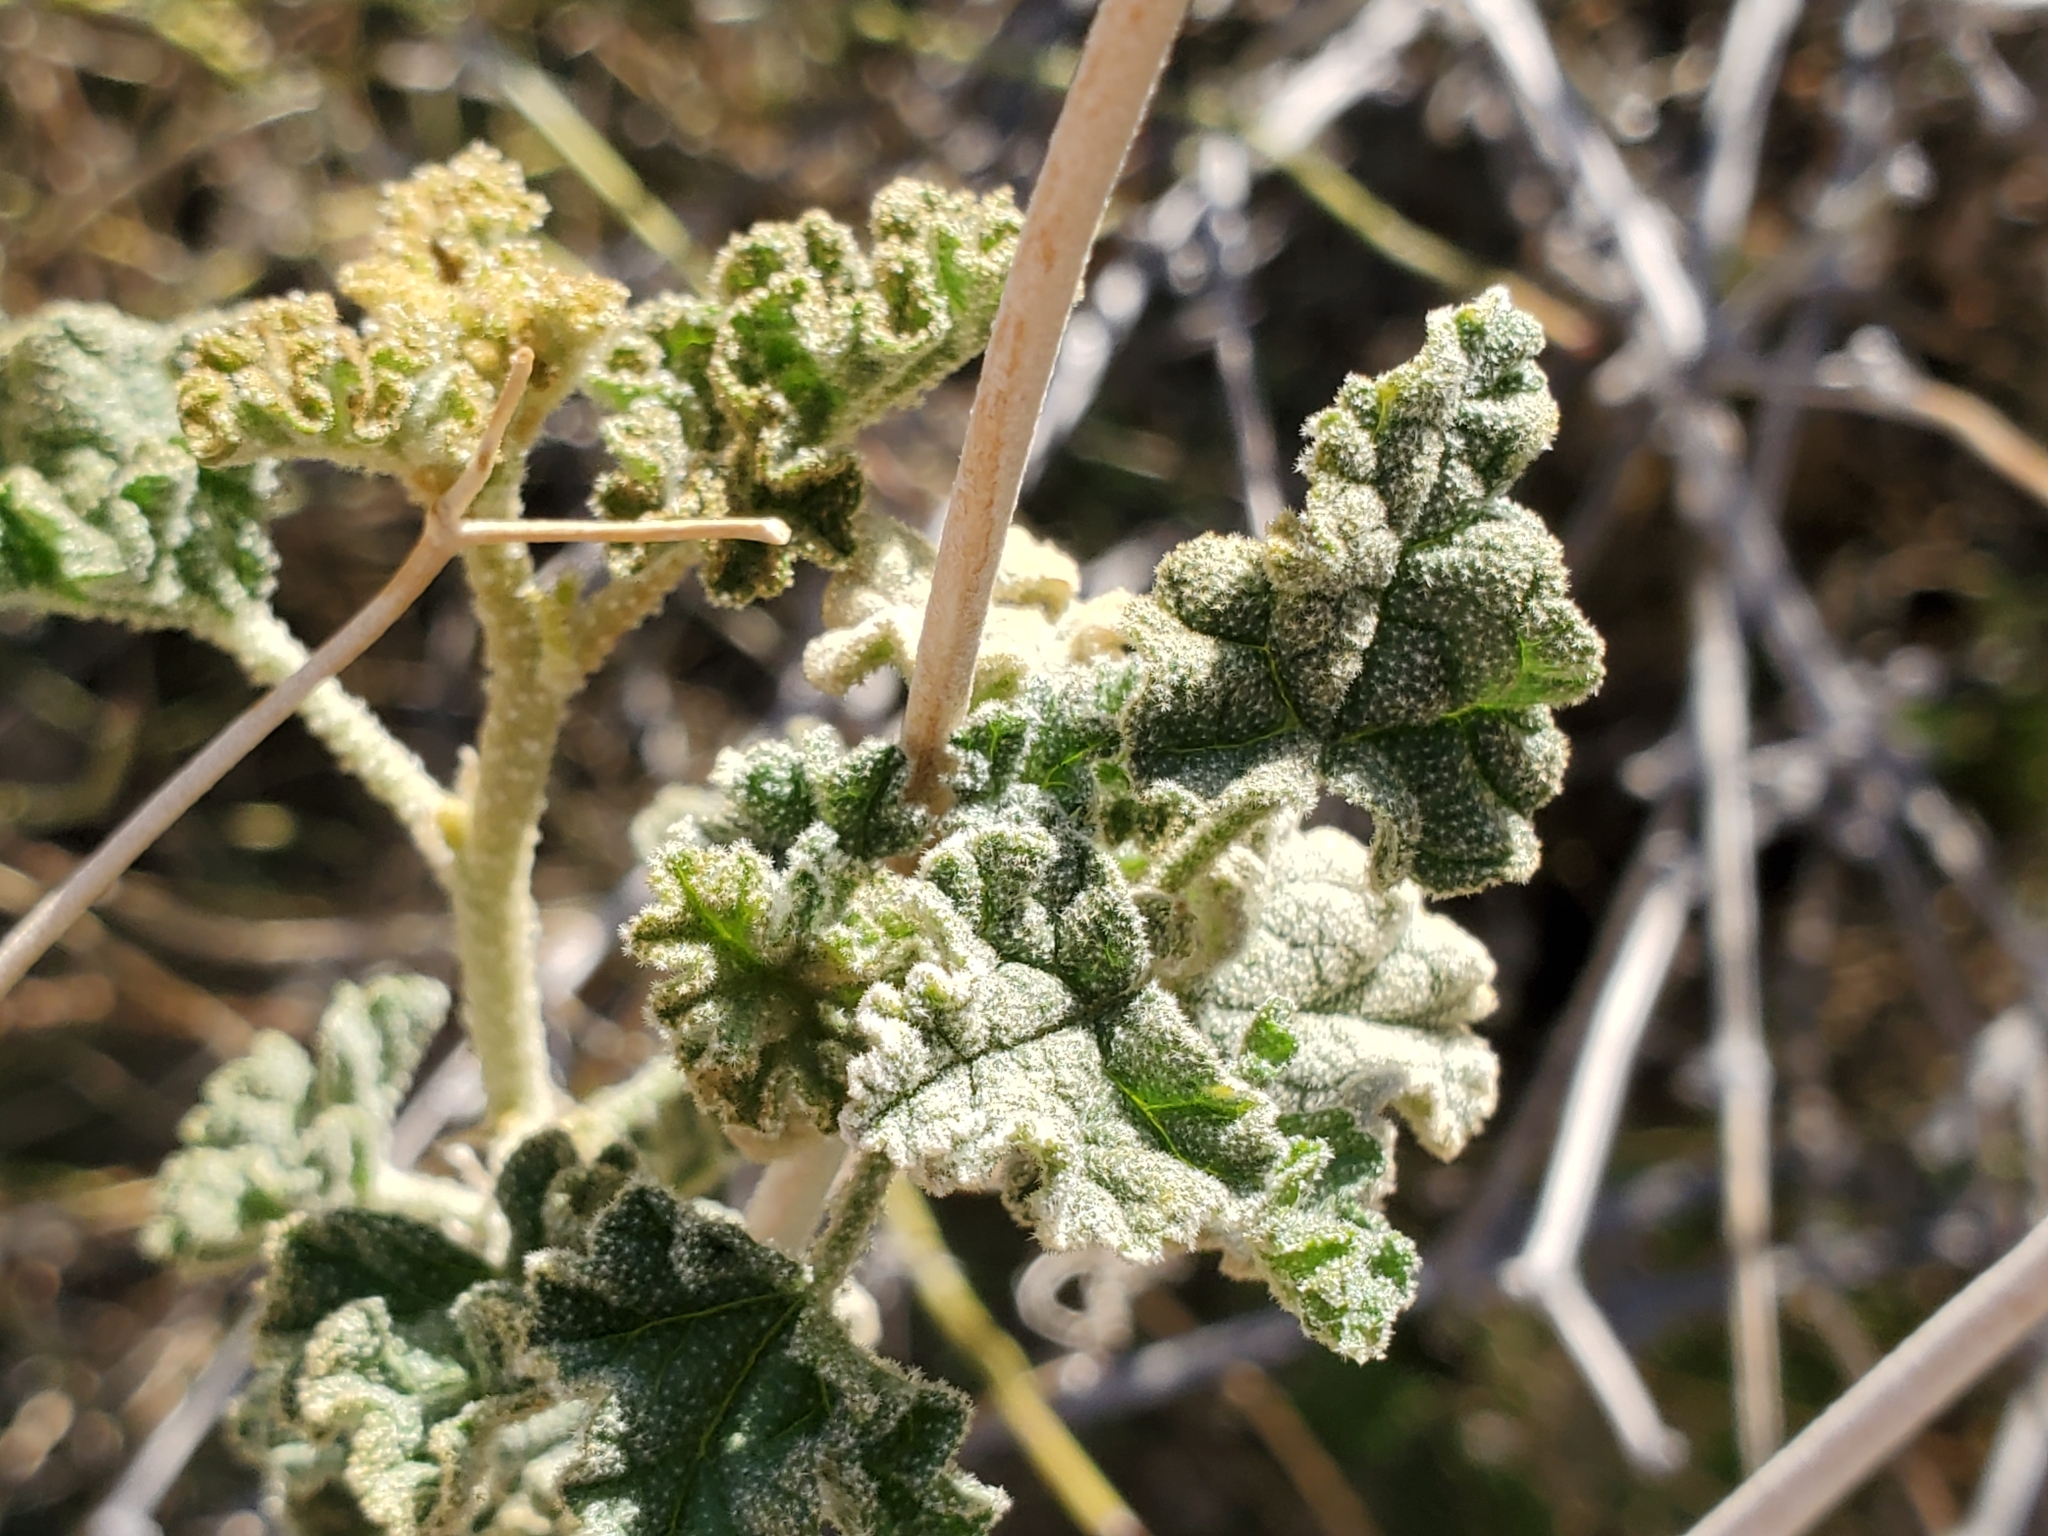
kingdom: Plantae
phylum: Tracheophyta
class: Magnoliopsida
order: Malvales
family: Malvaceae
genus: Sphaeralcea
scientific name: Sphaeralcea ambigua
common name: Apricot globe-mallow
